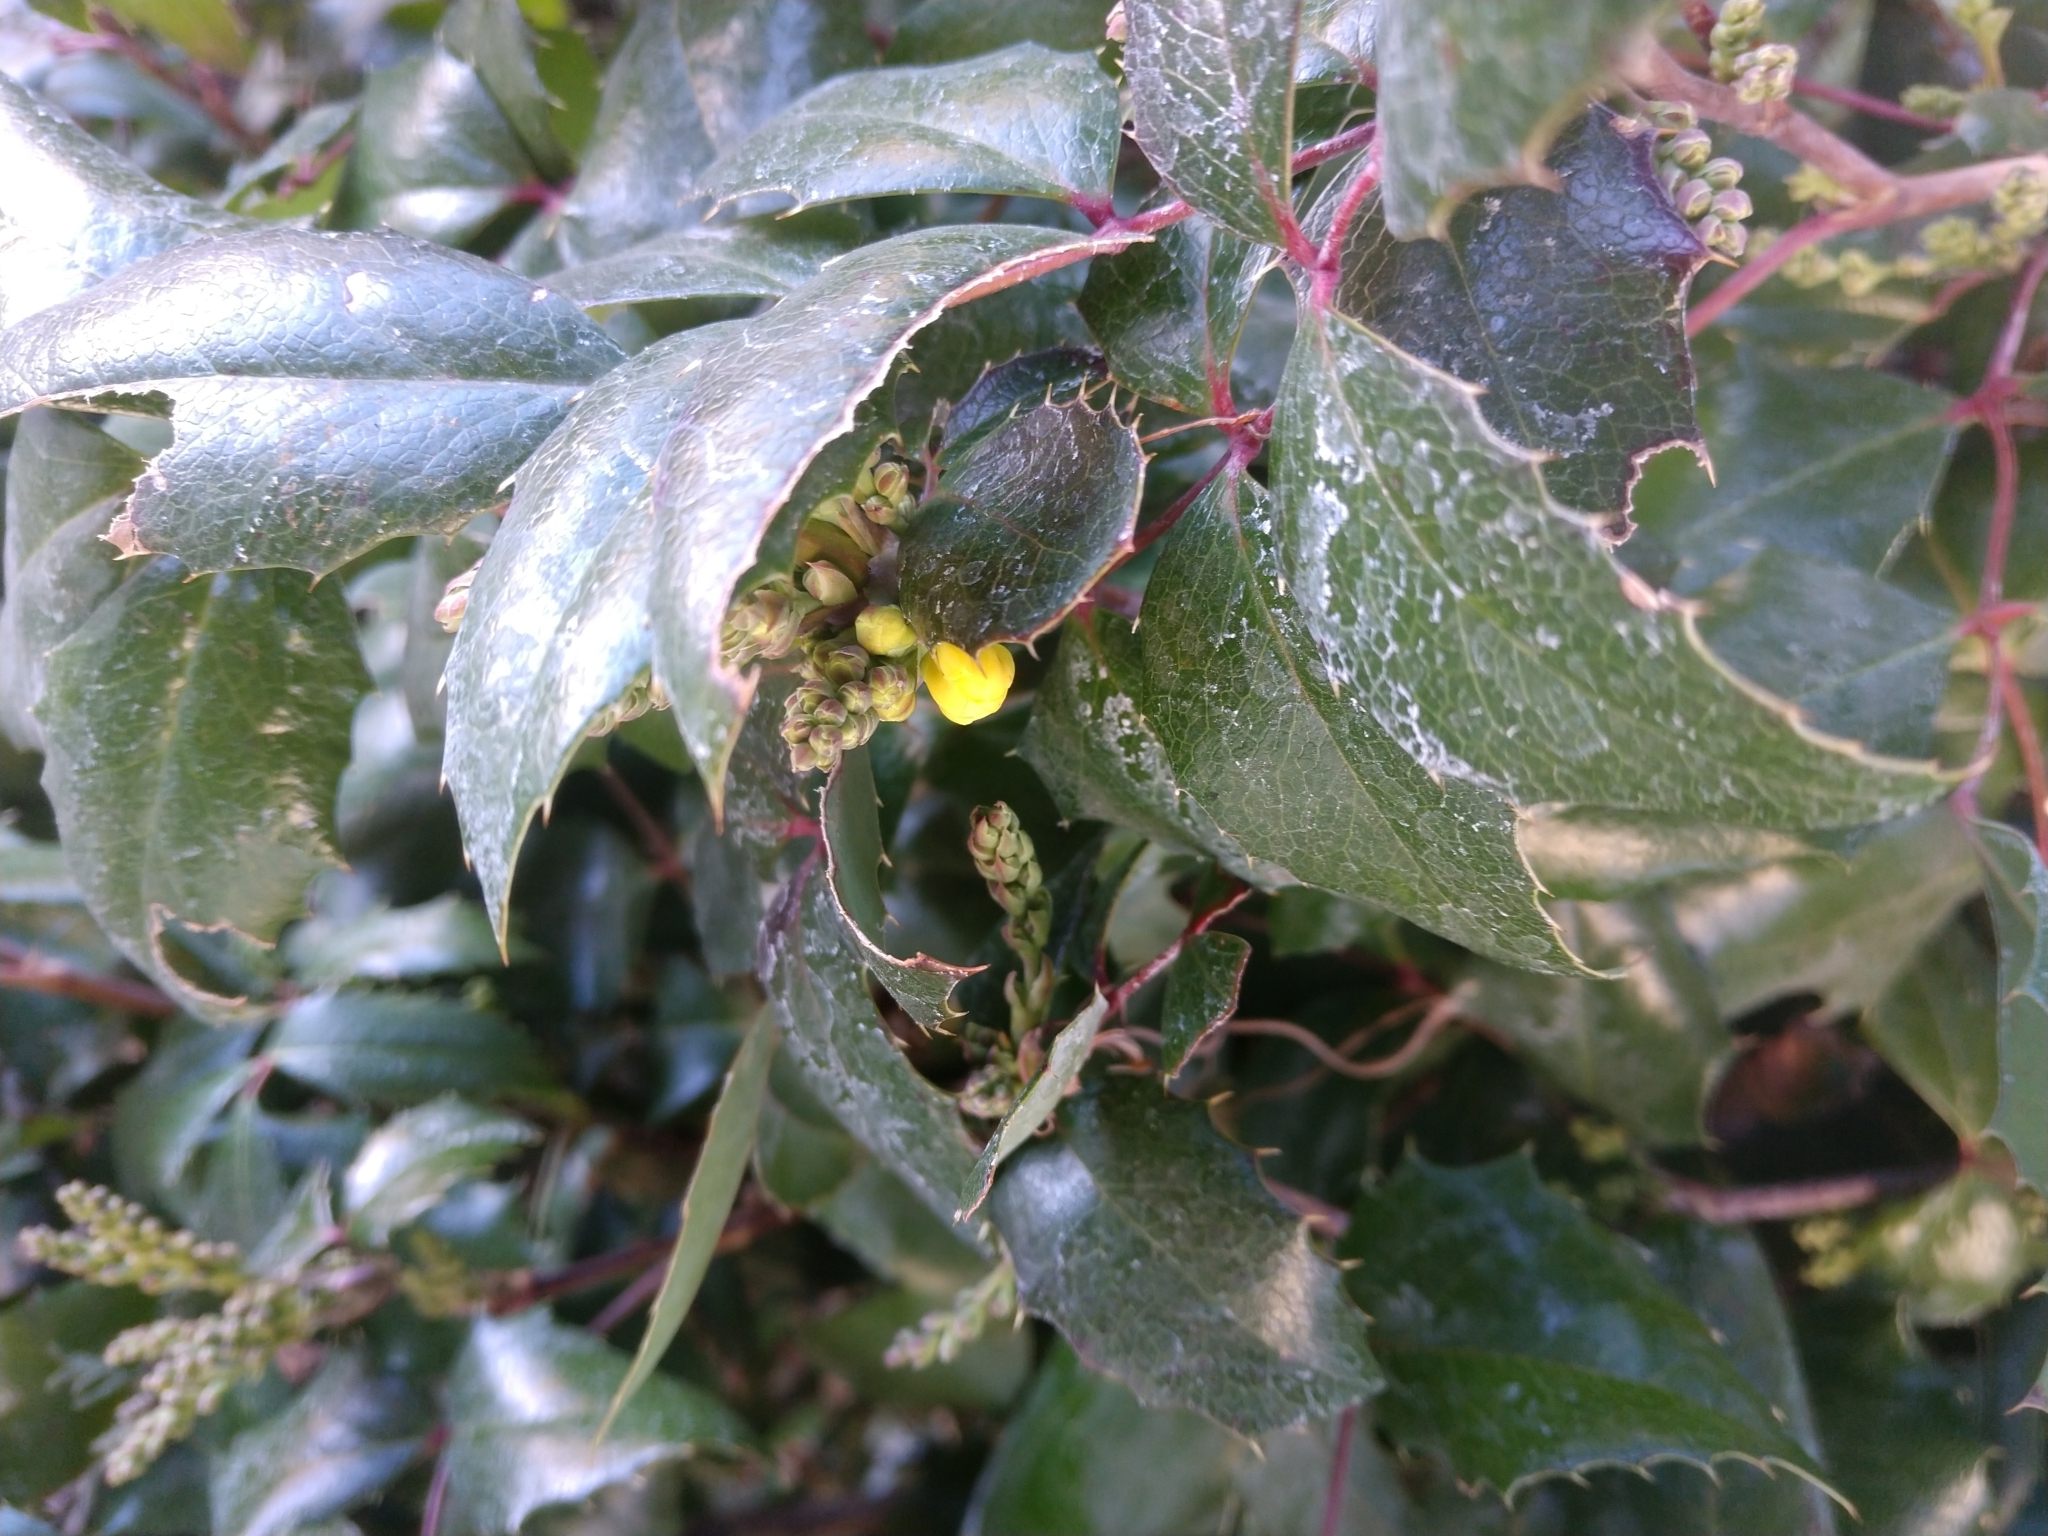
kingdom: Plantae
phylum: Tracheophyta
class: Magnoliopsida
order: Ranunculales
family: Berberidaceae
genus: Mahonia
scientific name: Mahonia aquifolium
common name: Oregon-grape
